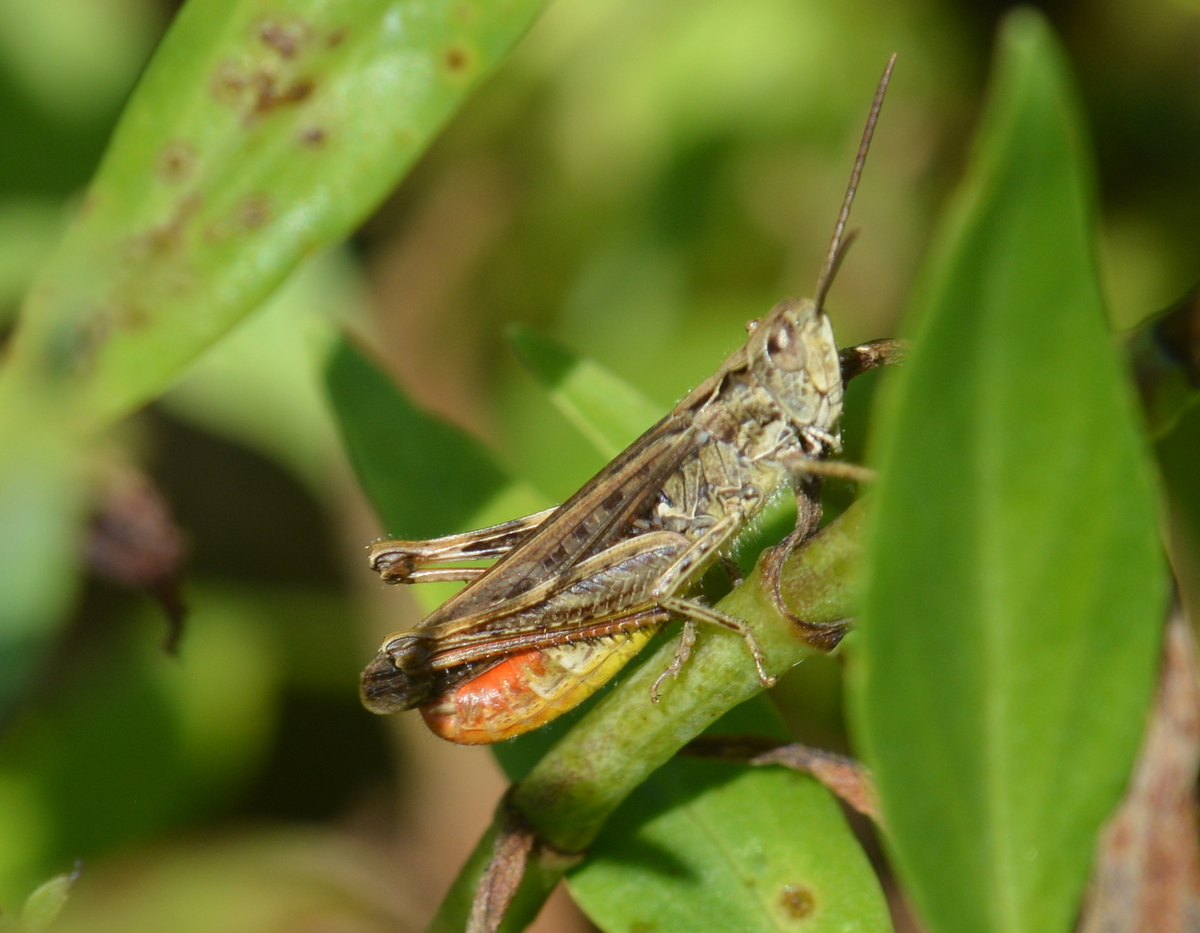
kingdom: Animalia
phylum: Arthropoda
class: Insecta
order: Orthoptera
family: Acrididae
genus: Chorthippus
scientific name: Chorthippus brunneus
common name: Field grasshopper
